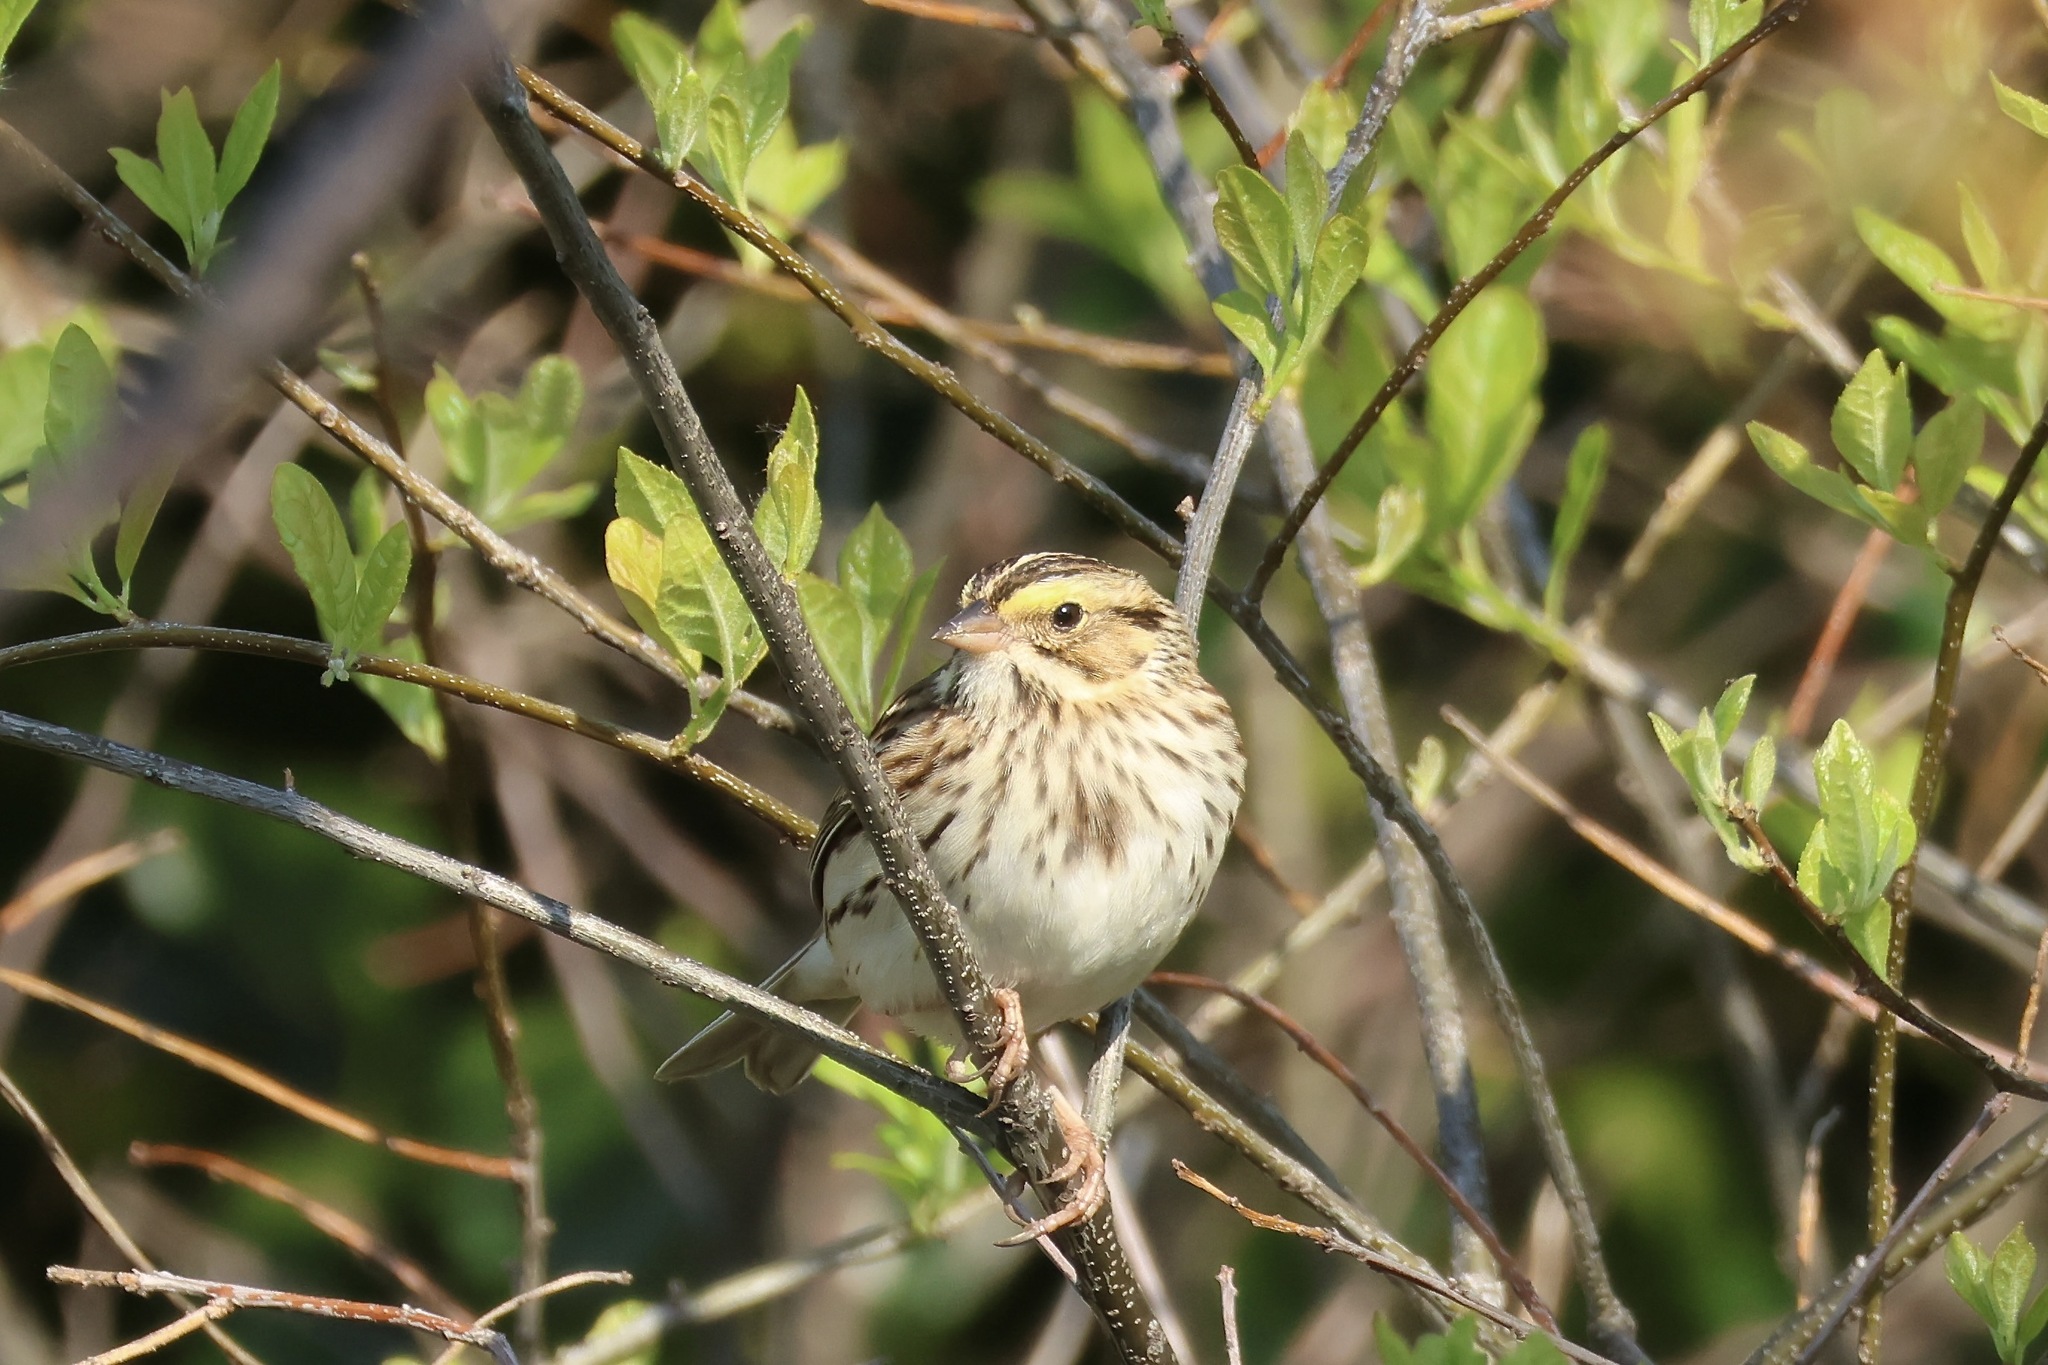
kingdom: Animalia
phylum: Chordata
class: Aves
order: Passeriformes
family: Passerellidae
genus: Passerculus
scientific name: Passerculus sandwichensis
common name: Savannah sparrow
